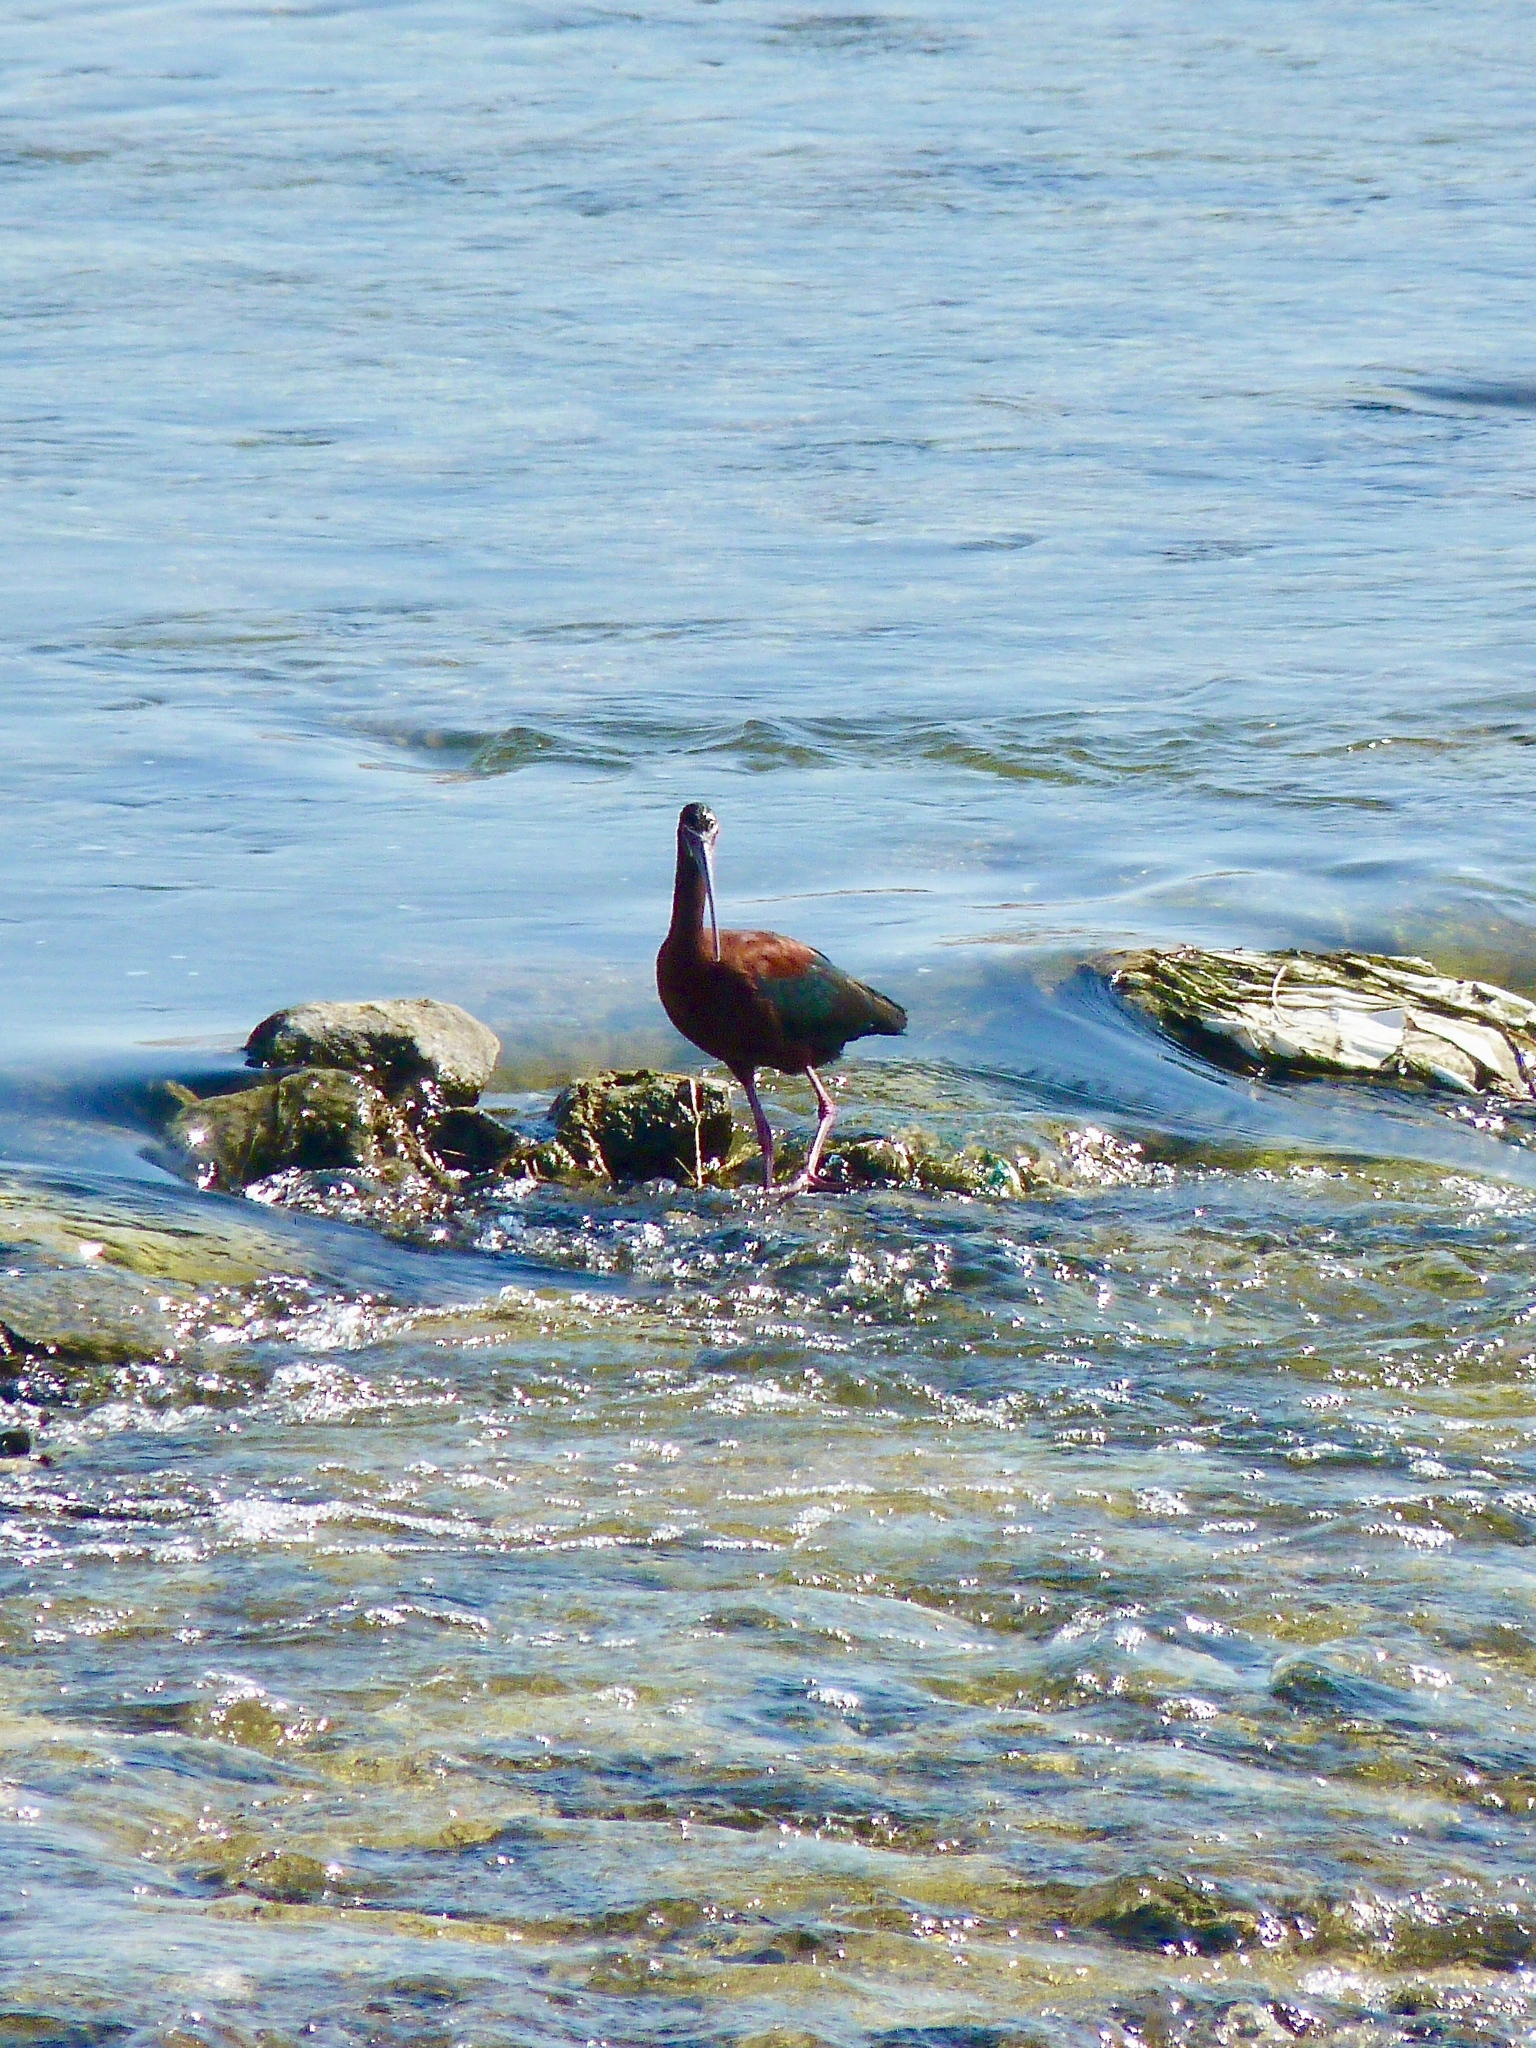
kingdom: Animalia
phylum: Chordata
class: Aves
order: Pelecaniformes
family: Threskiornithidae
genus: Plegadis
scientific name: Plegadis chihi
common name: White-faced ibis
